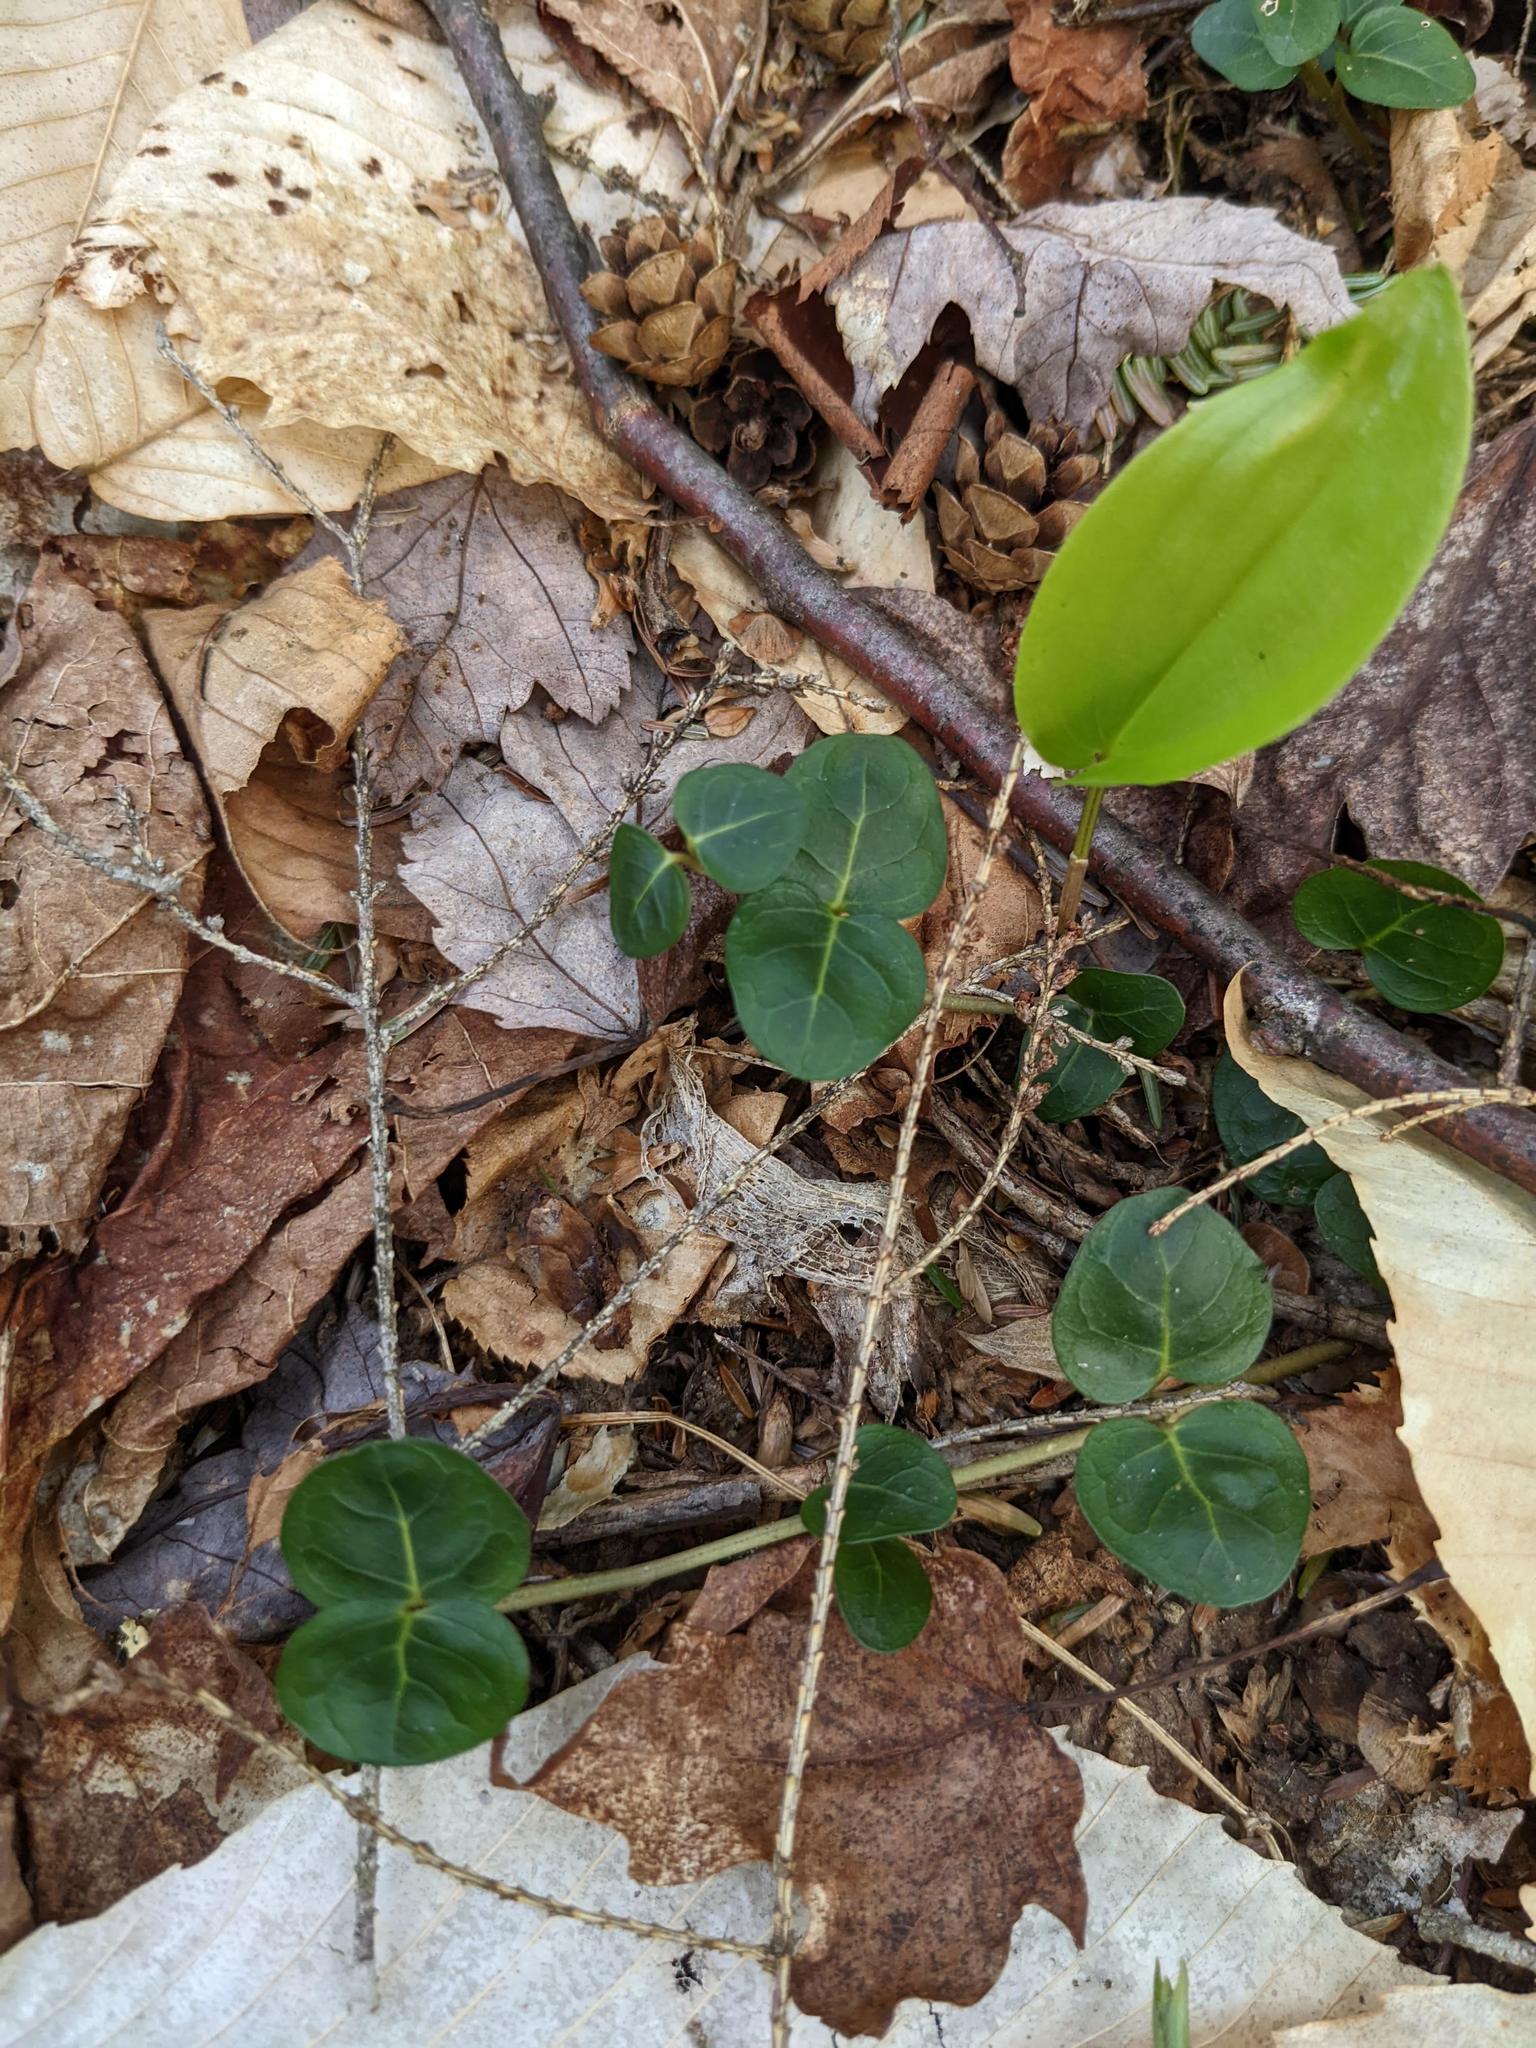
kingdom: Plantae
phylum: Tracheophyta
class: Magnoliopsida
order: Gentianales
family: Rubiaceae
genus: Mitchella
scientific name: Mitchella repens
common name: Partridge-berry
